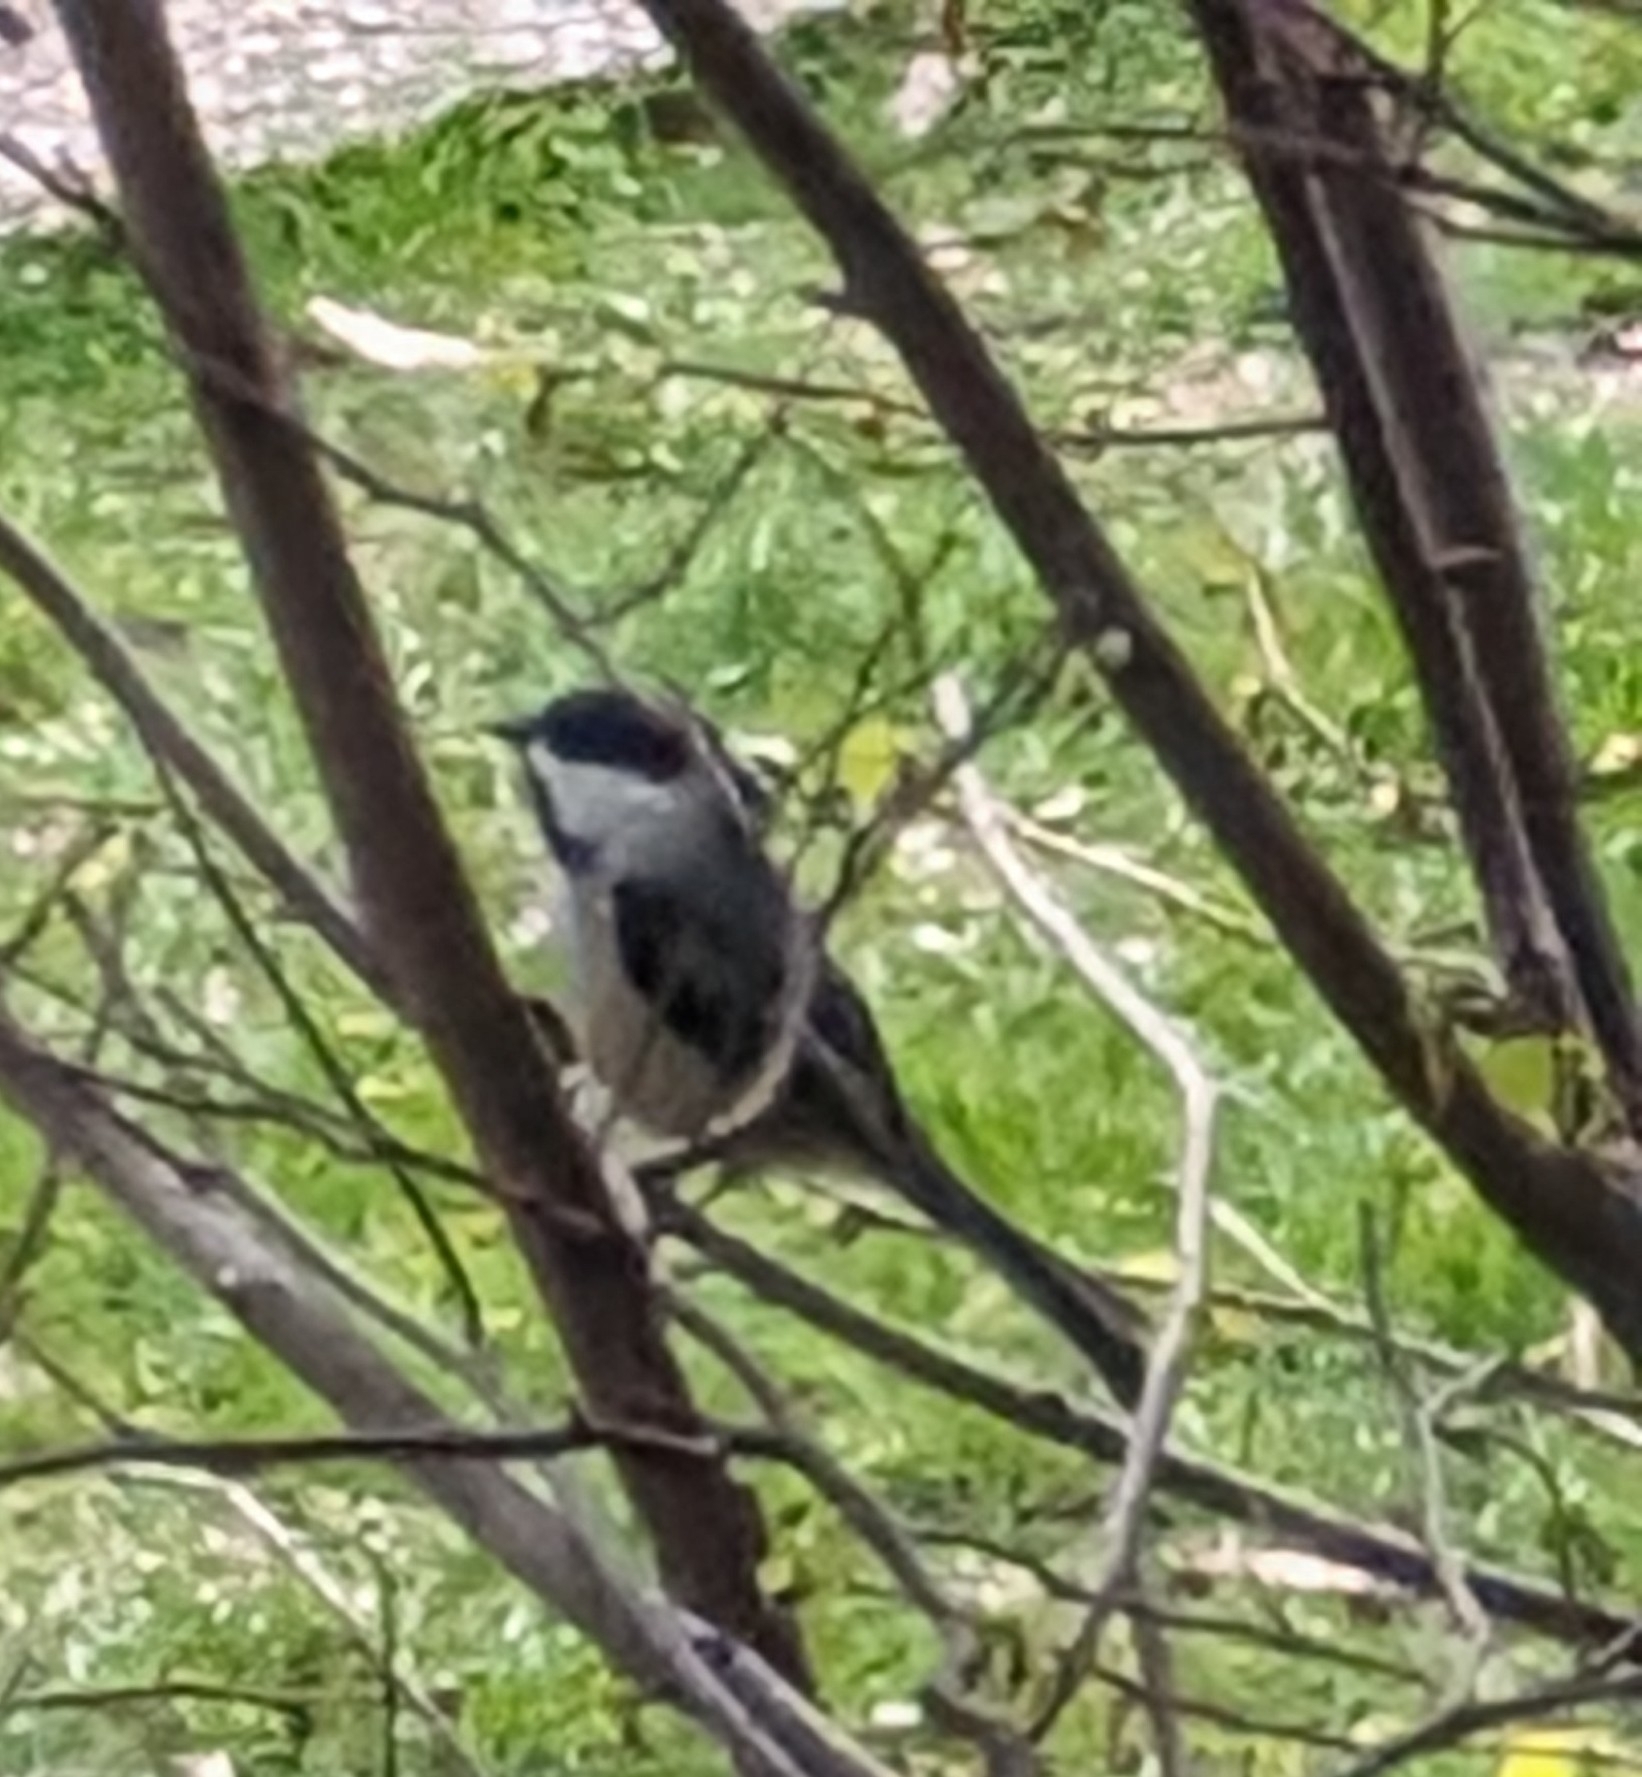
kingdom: Animalia
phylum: Chordata
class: Aves
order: Passeriformes
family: Paridae
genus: Poecile
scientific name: Poecile atricapillus
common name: Black-capped chickadee
